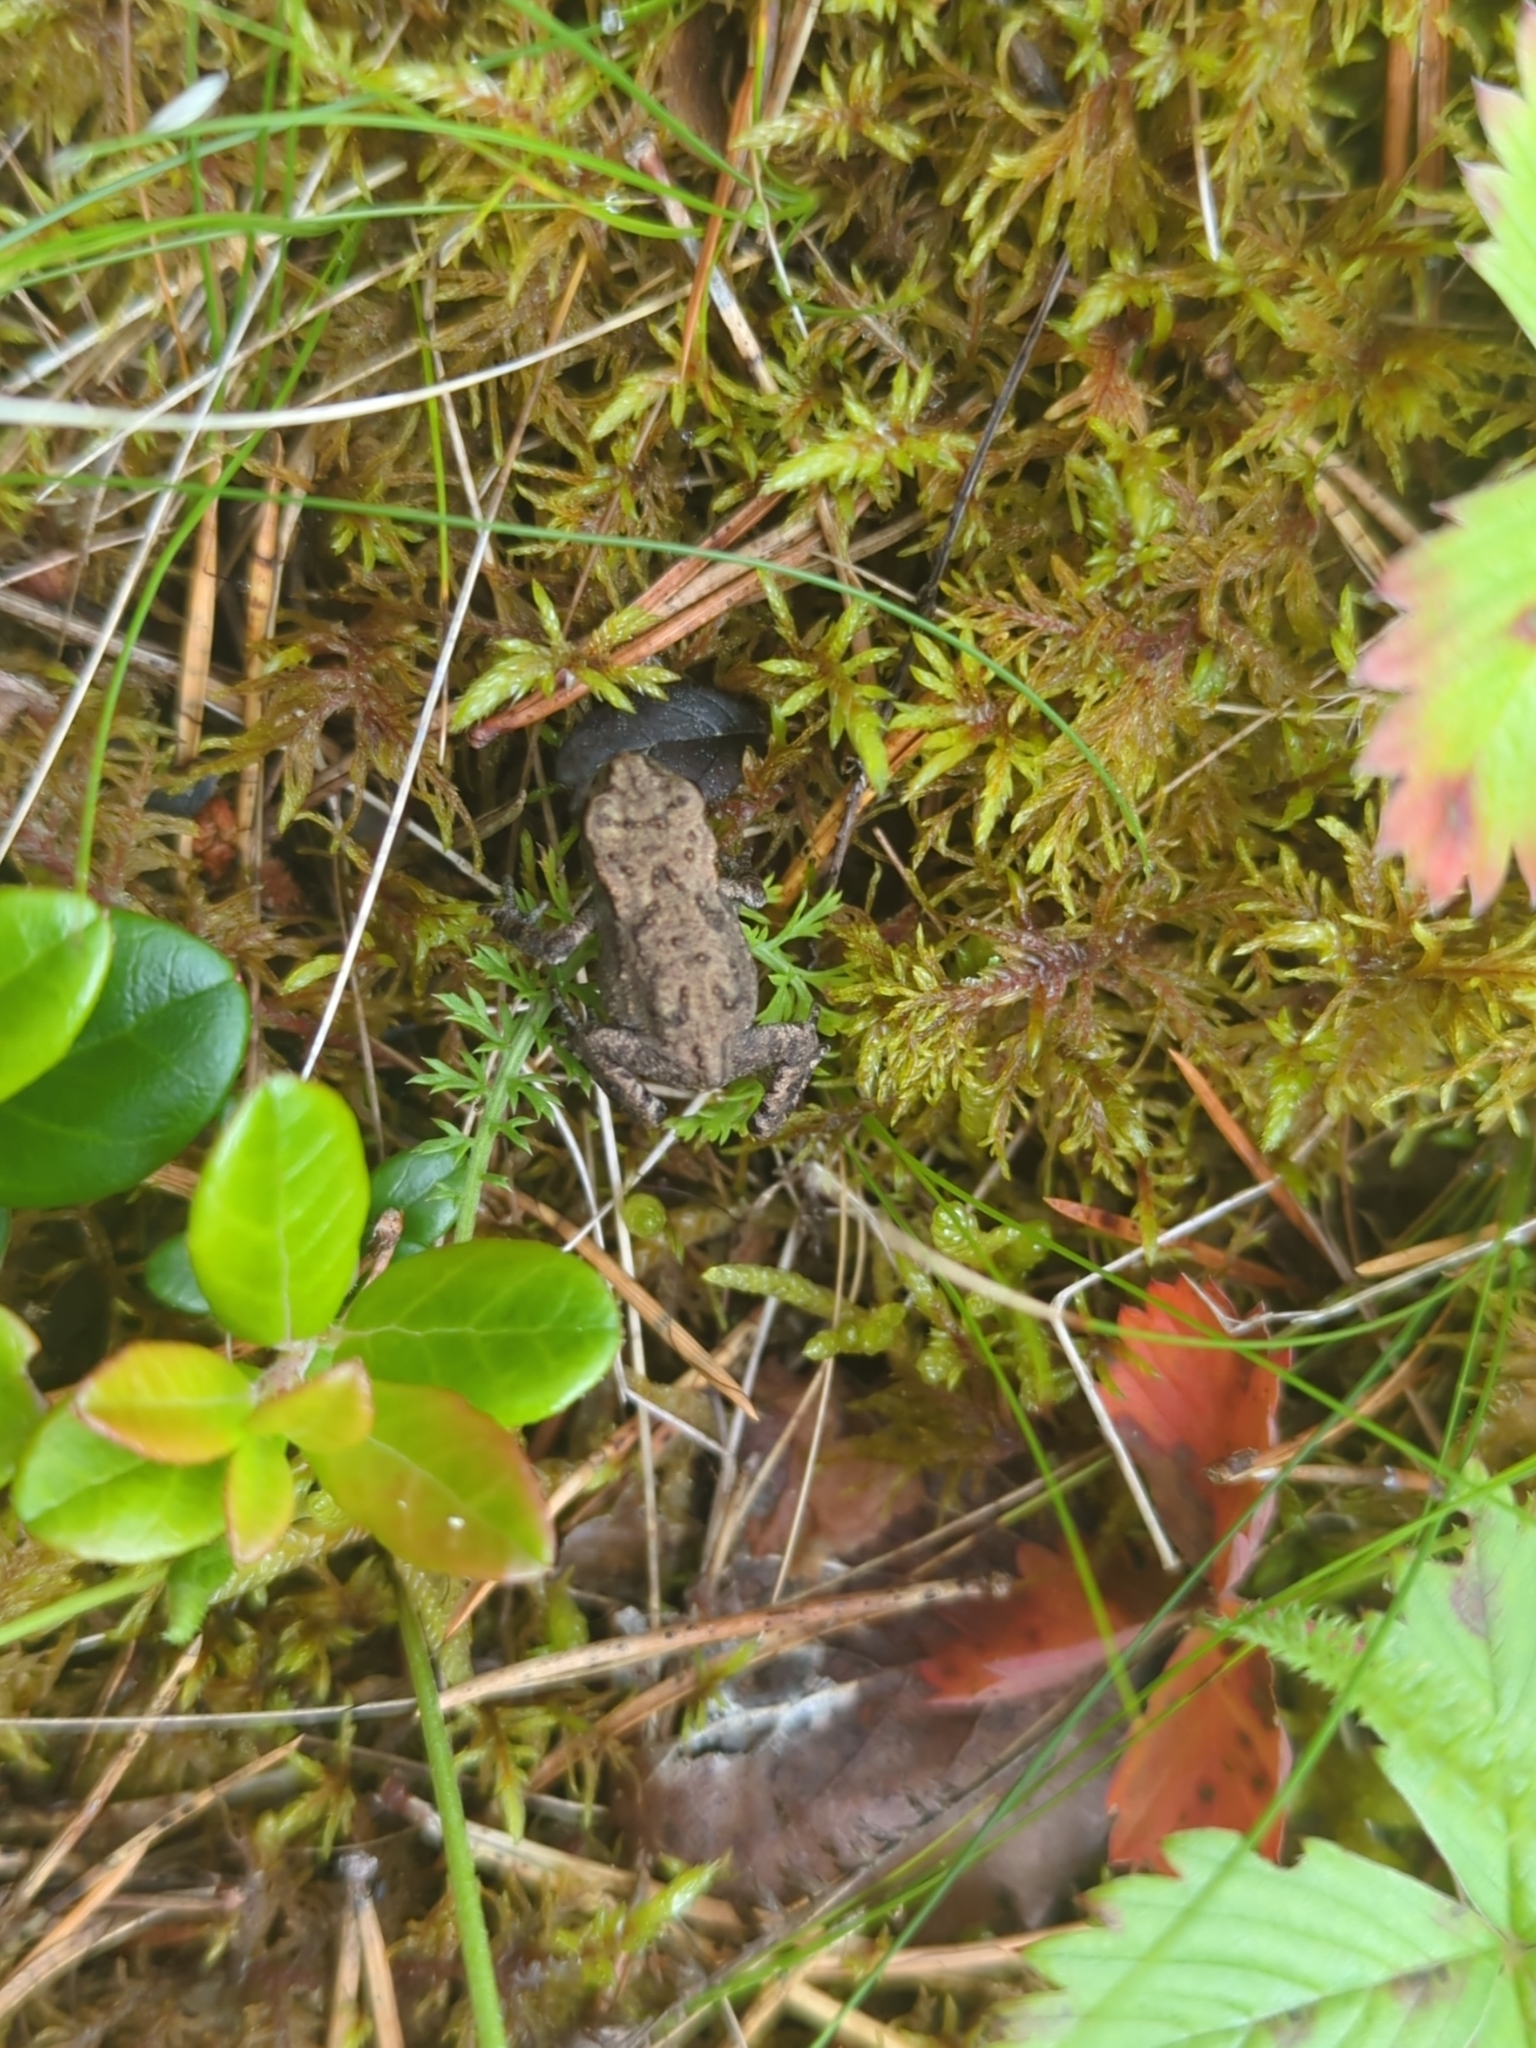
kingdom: Animalia
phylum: Chordata
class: Amphibia
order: Anura
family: Bufonidae
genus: Bufo
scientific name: Bufo bufo
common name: Common toad
